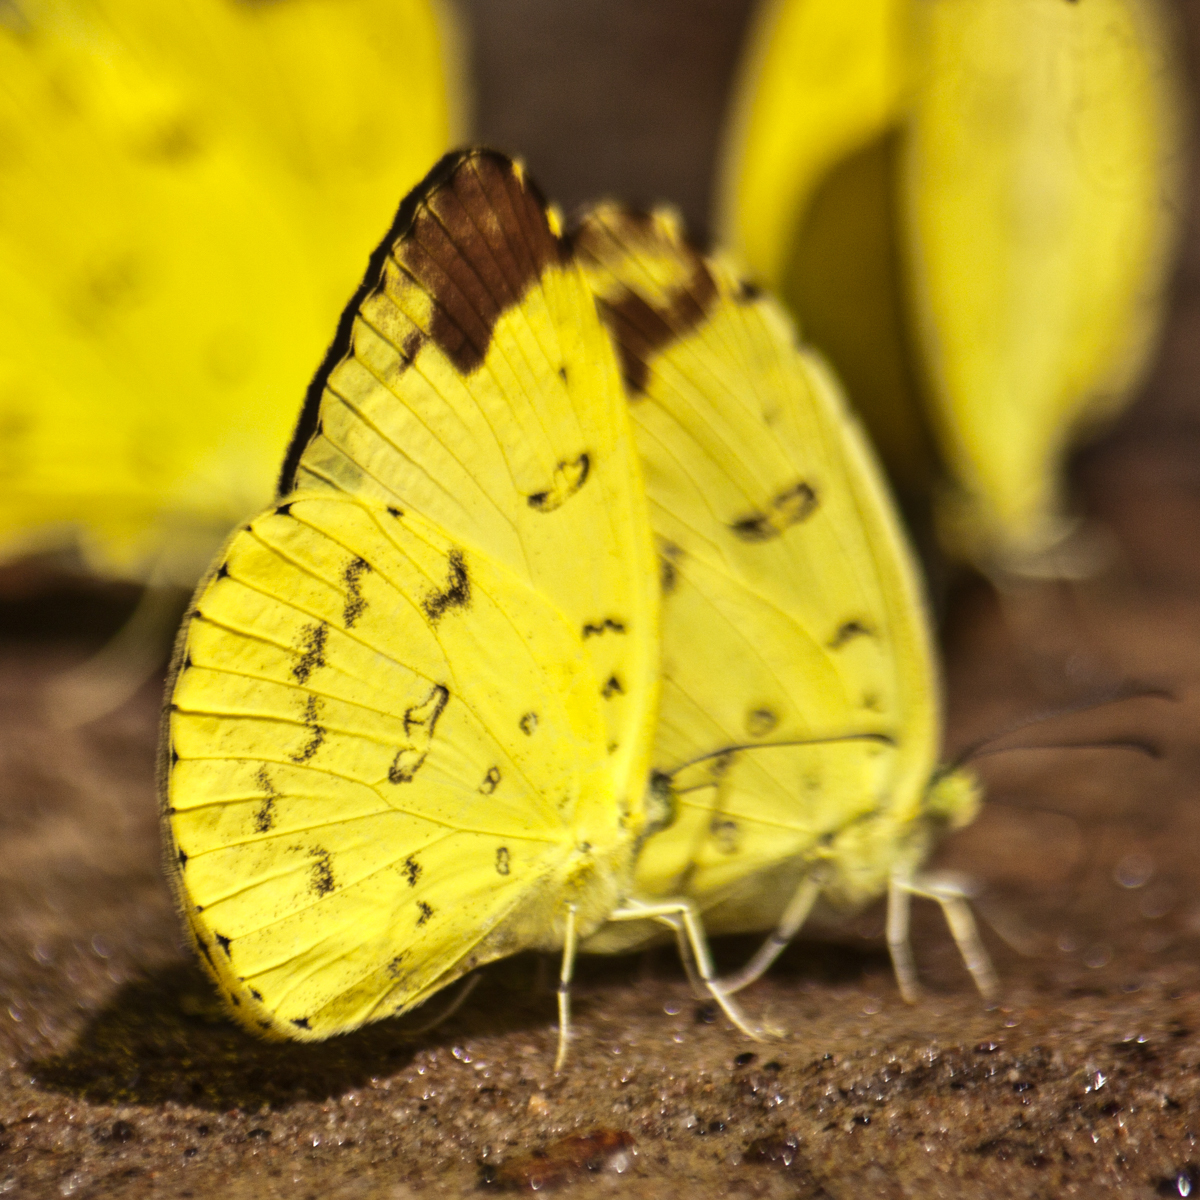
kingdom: Animalia
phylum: Arthropoda
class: Insecta
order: Lepidoptera
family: Pieridae
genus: Eurema
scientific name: Eurema blanda
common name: Three-spot grass yellow
